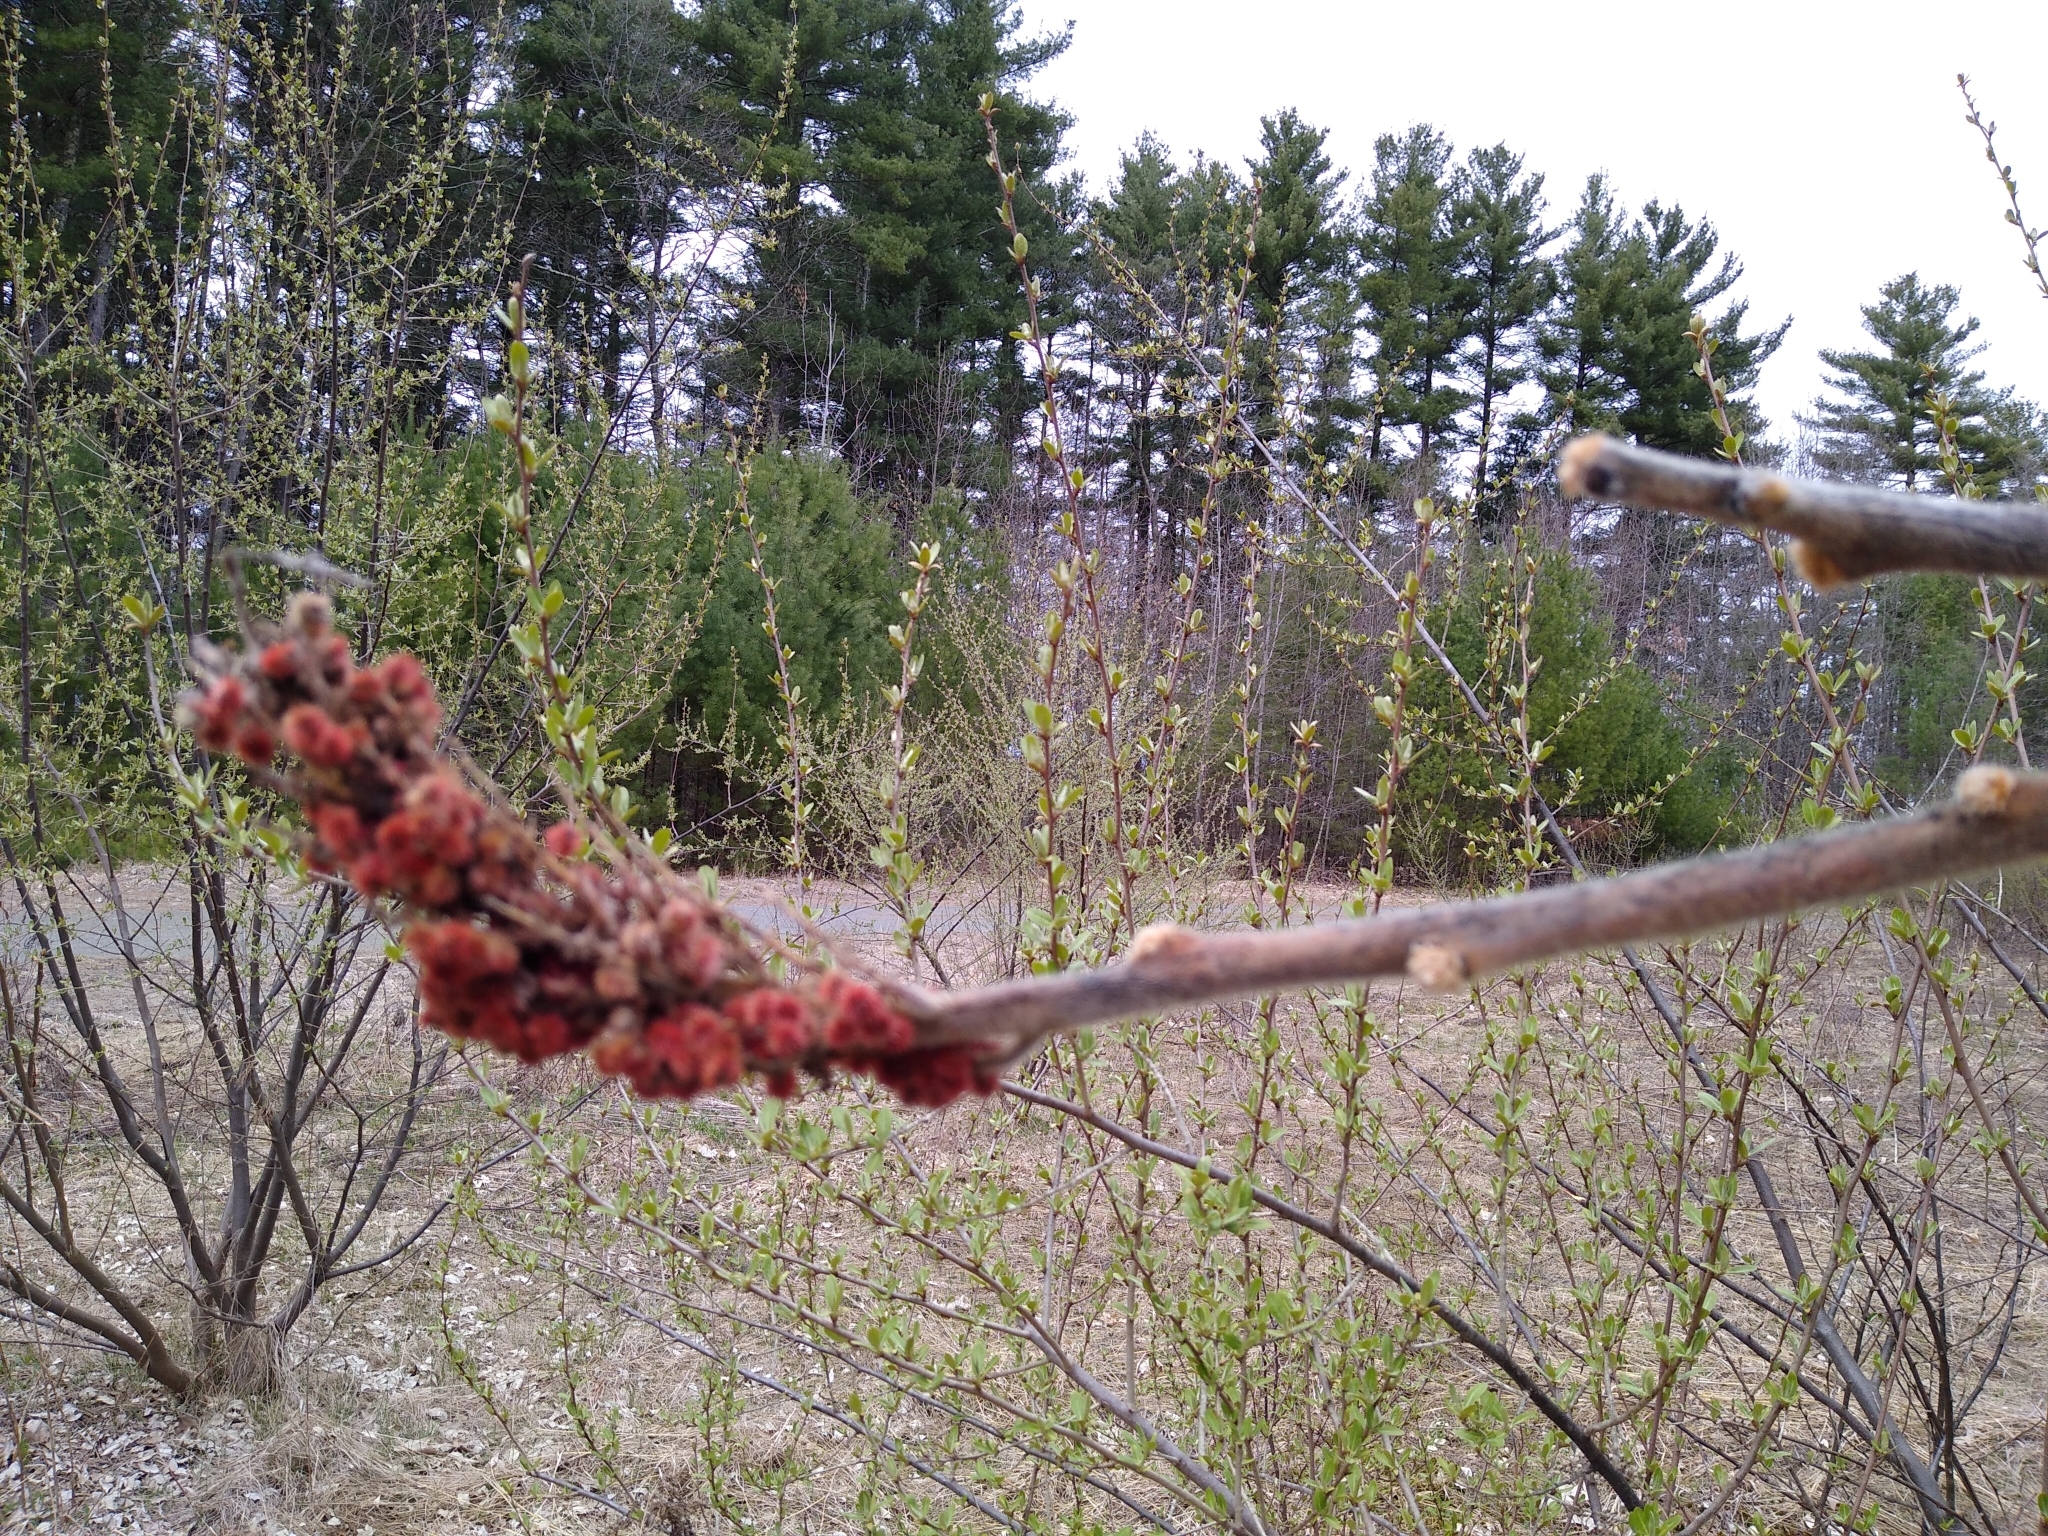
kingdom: Plantae
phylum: Tracheophyta
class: Magnoliopsida
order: Sapindales
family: Anacardiaceae
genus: Rhus
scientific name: Rhus typhina
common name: Staghorn sumac
